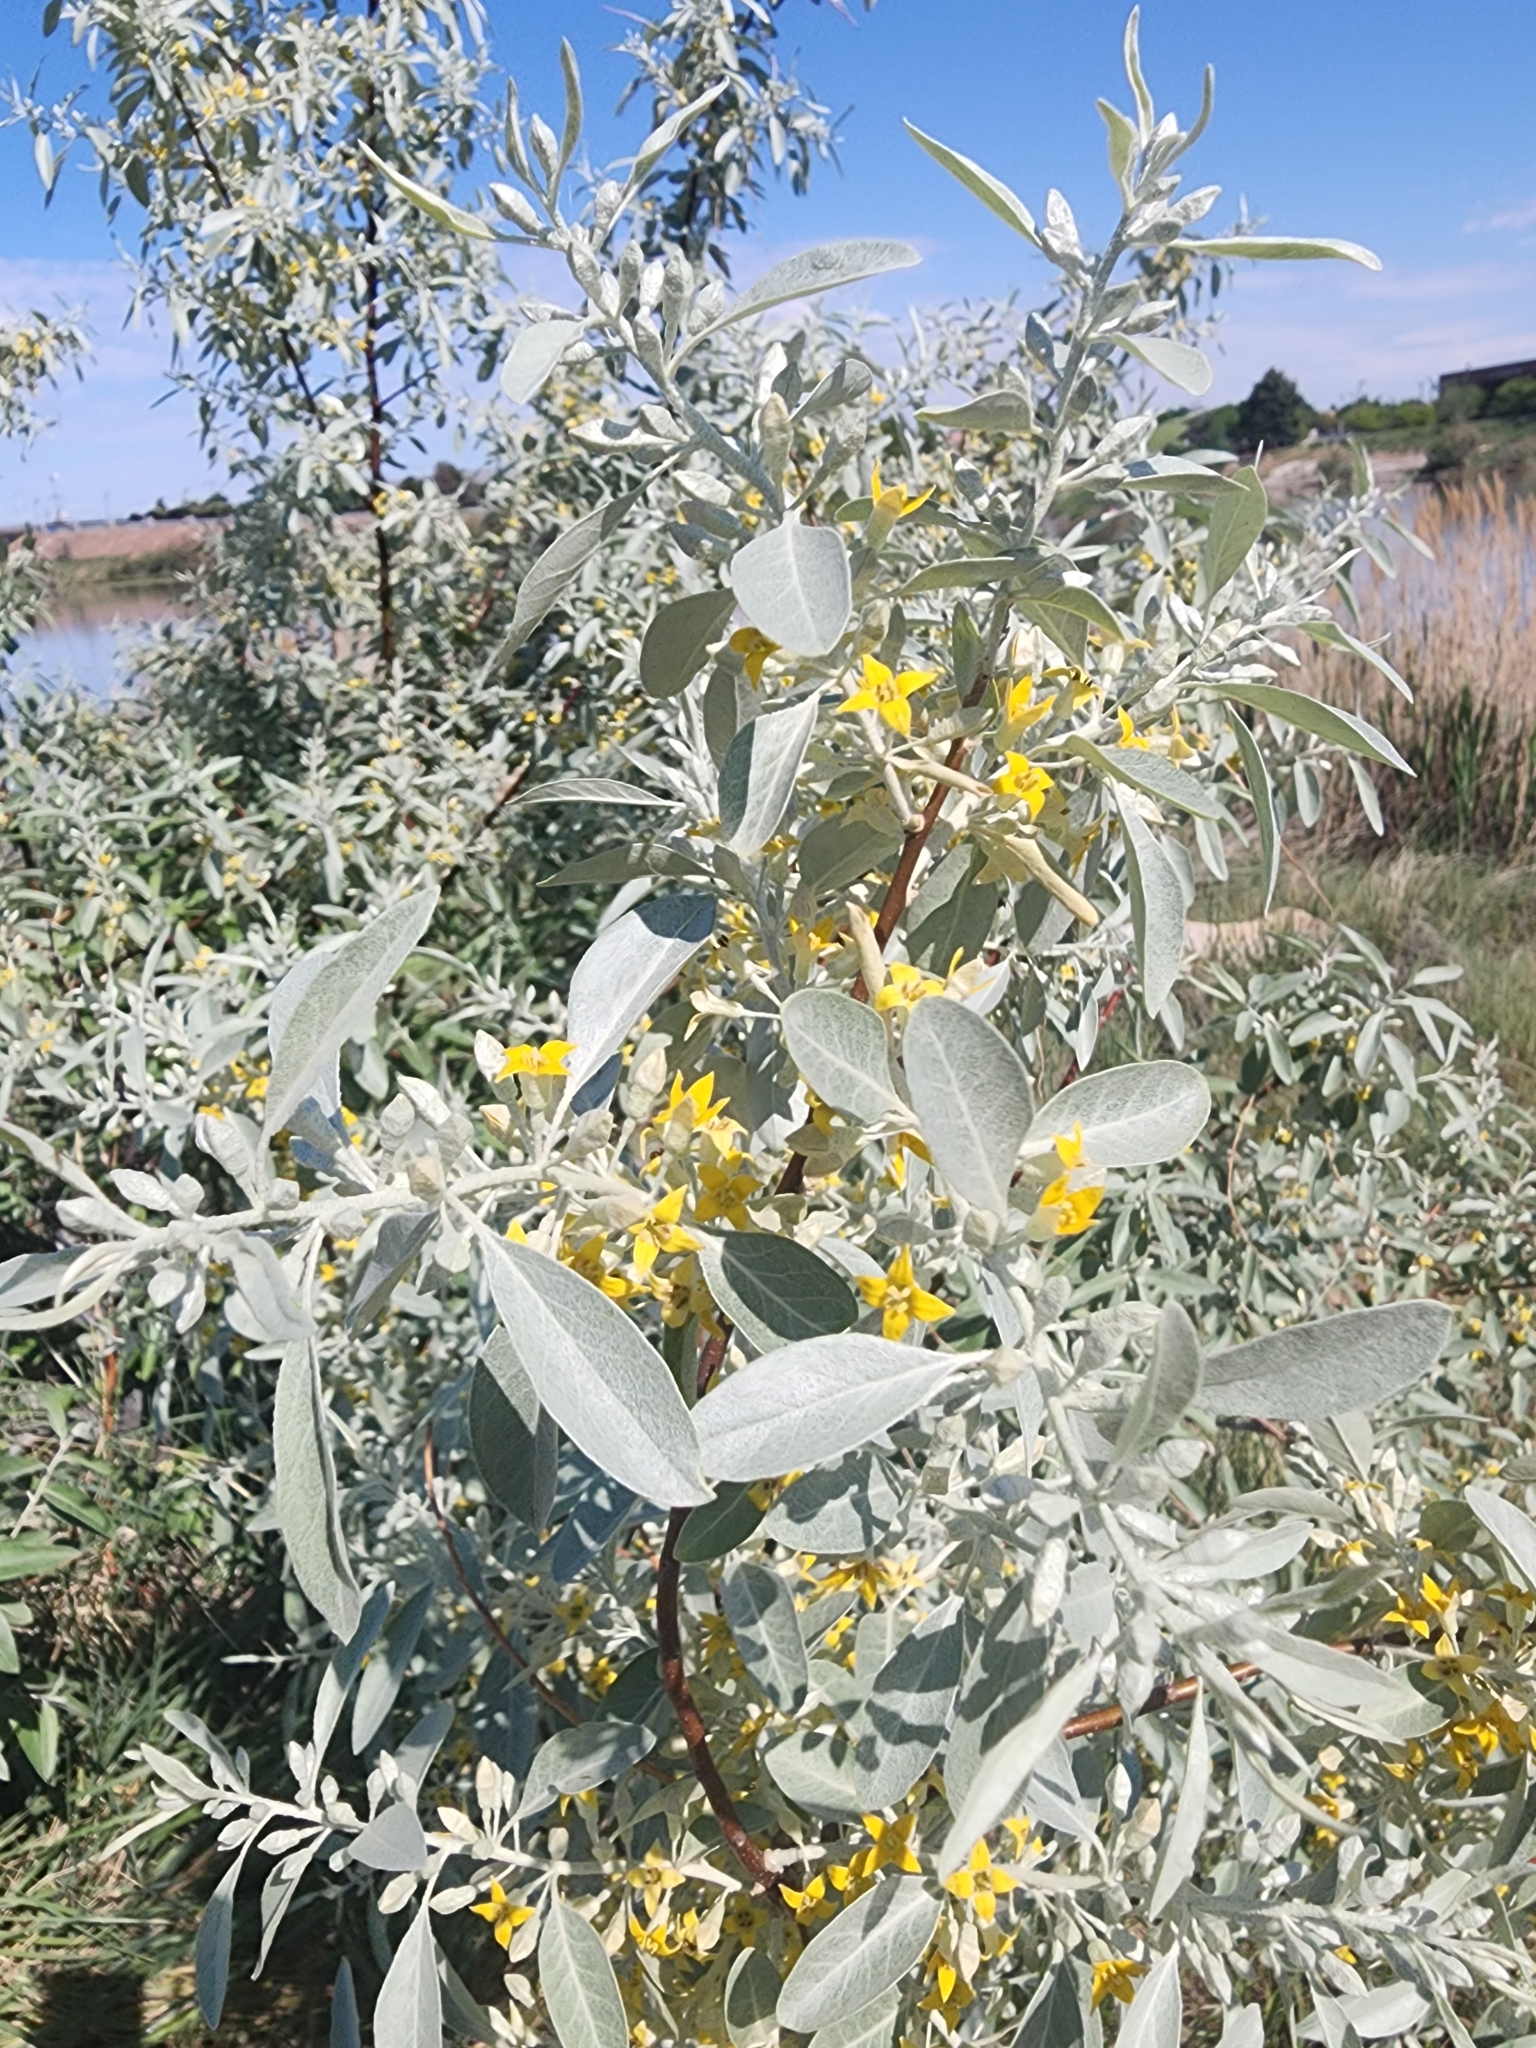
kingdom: Plantae
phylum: Tracheophyta
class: Magnoliopsida
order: Rosales
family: Elaeagnaceae
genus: Elaeagnus
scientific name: Elaeagnus angustifolia
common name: Russian olive
